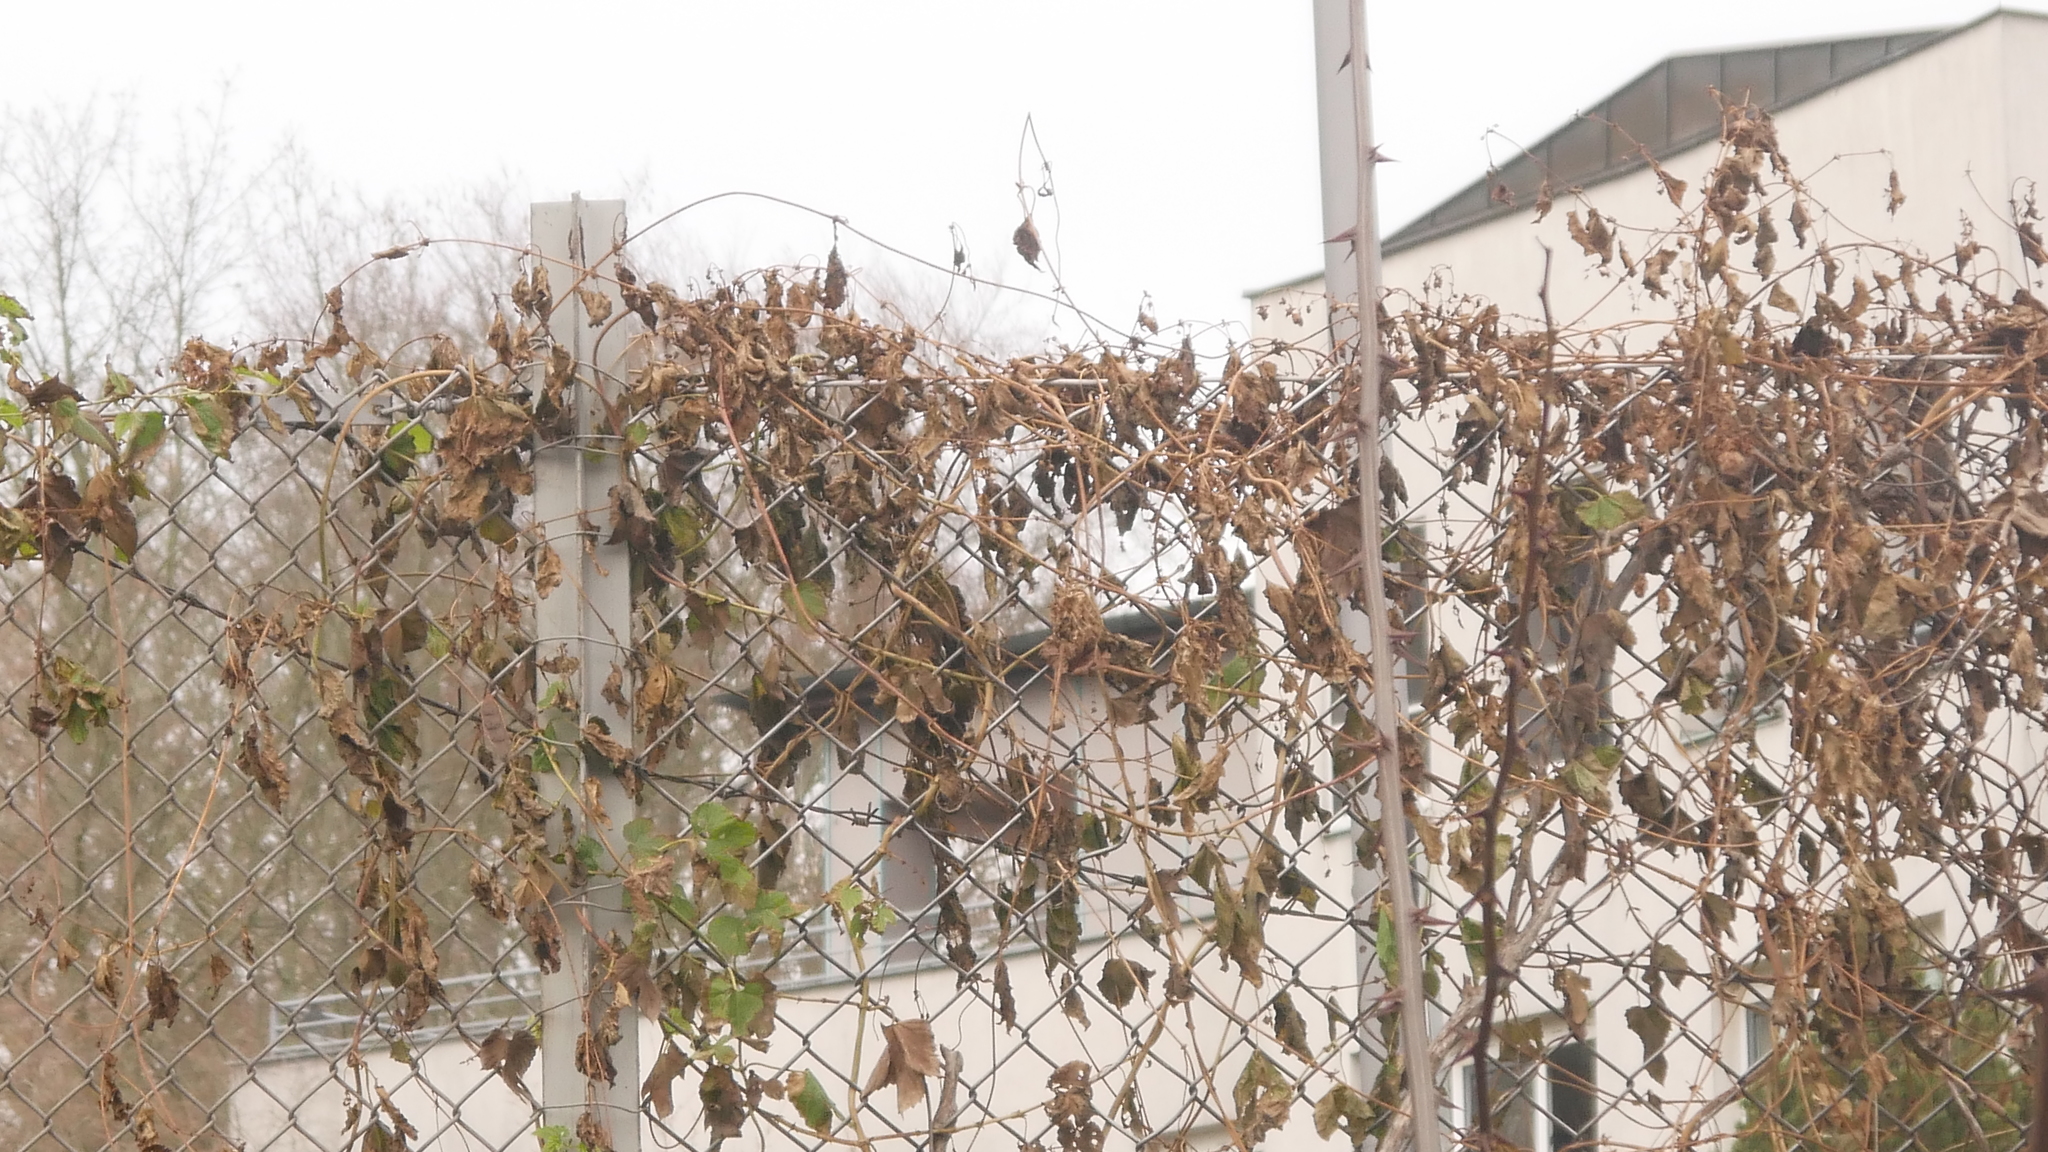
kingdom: Plantae
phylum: Tracheophyta
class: Magnoliopsida
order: Rosales
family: Cannabaceae
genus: Humulus
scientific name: Humulus lupulus
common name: Hop
